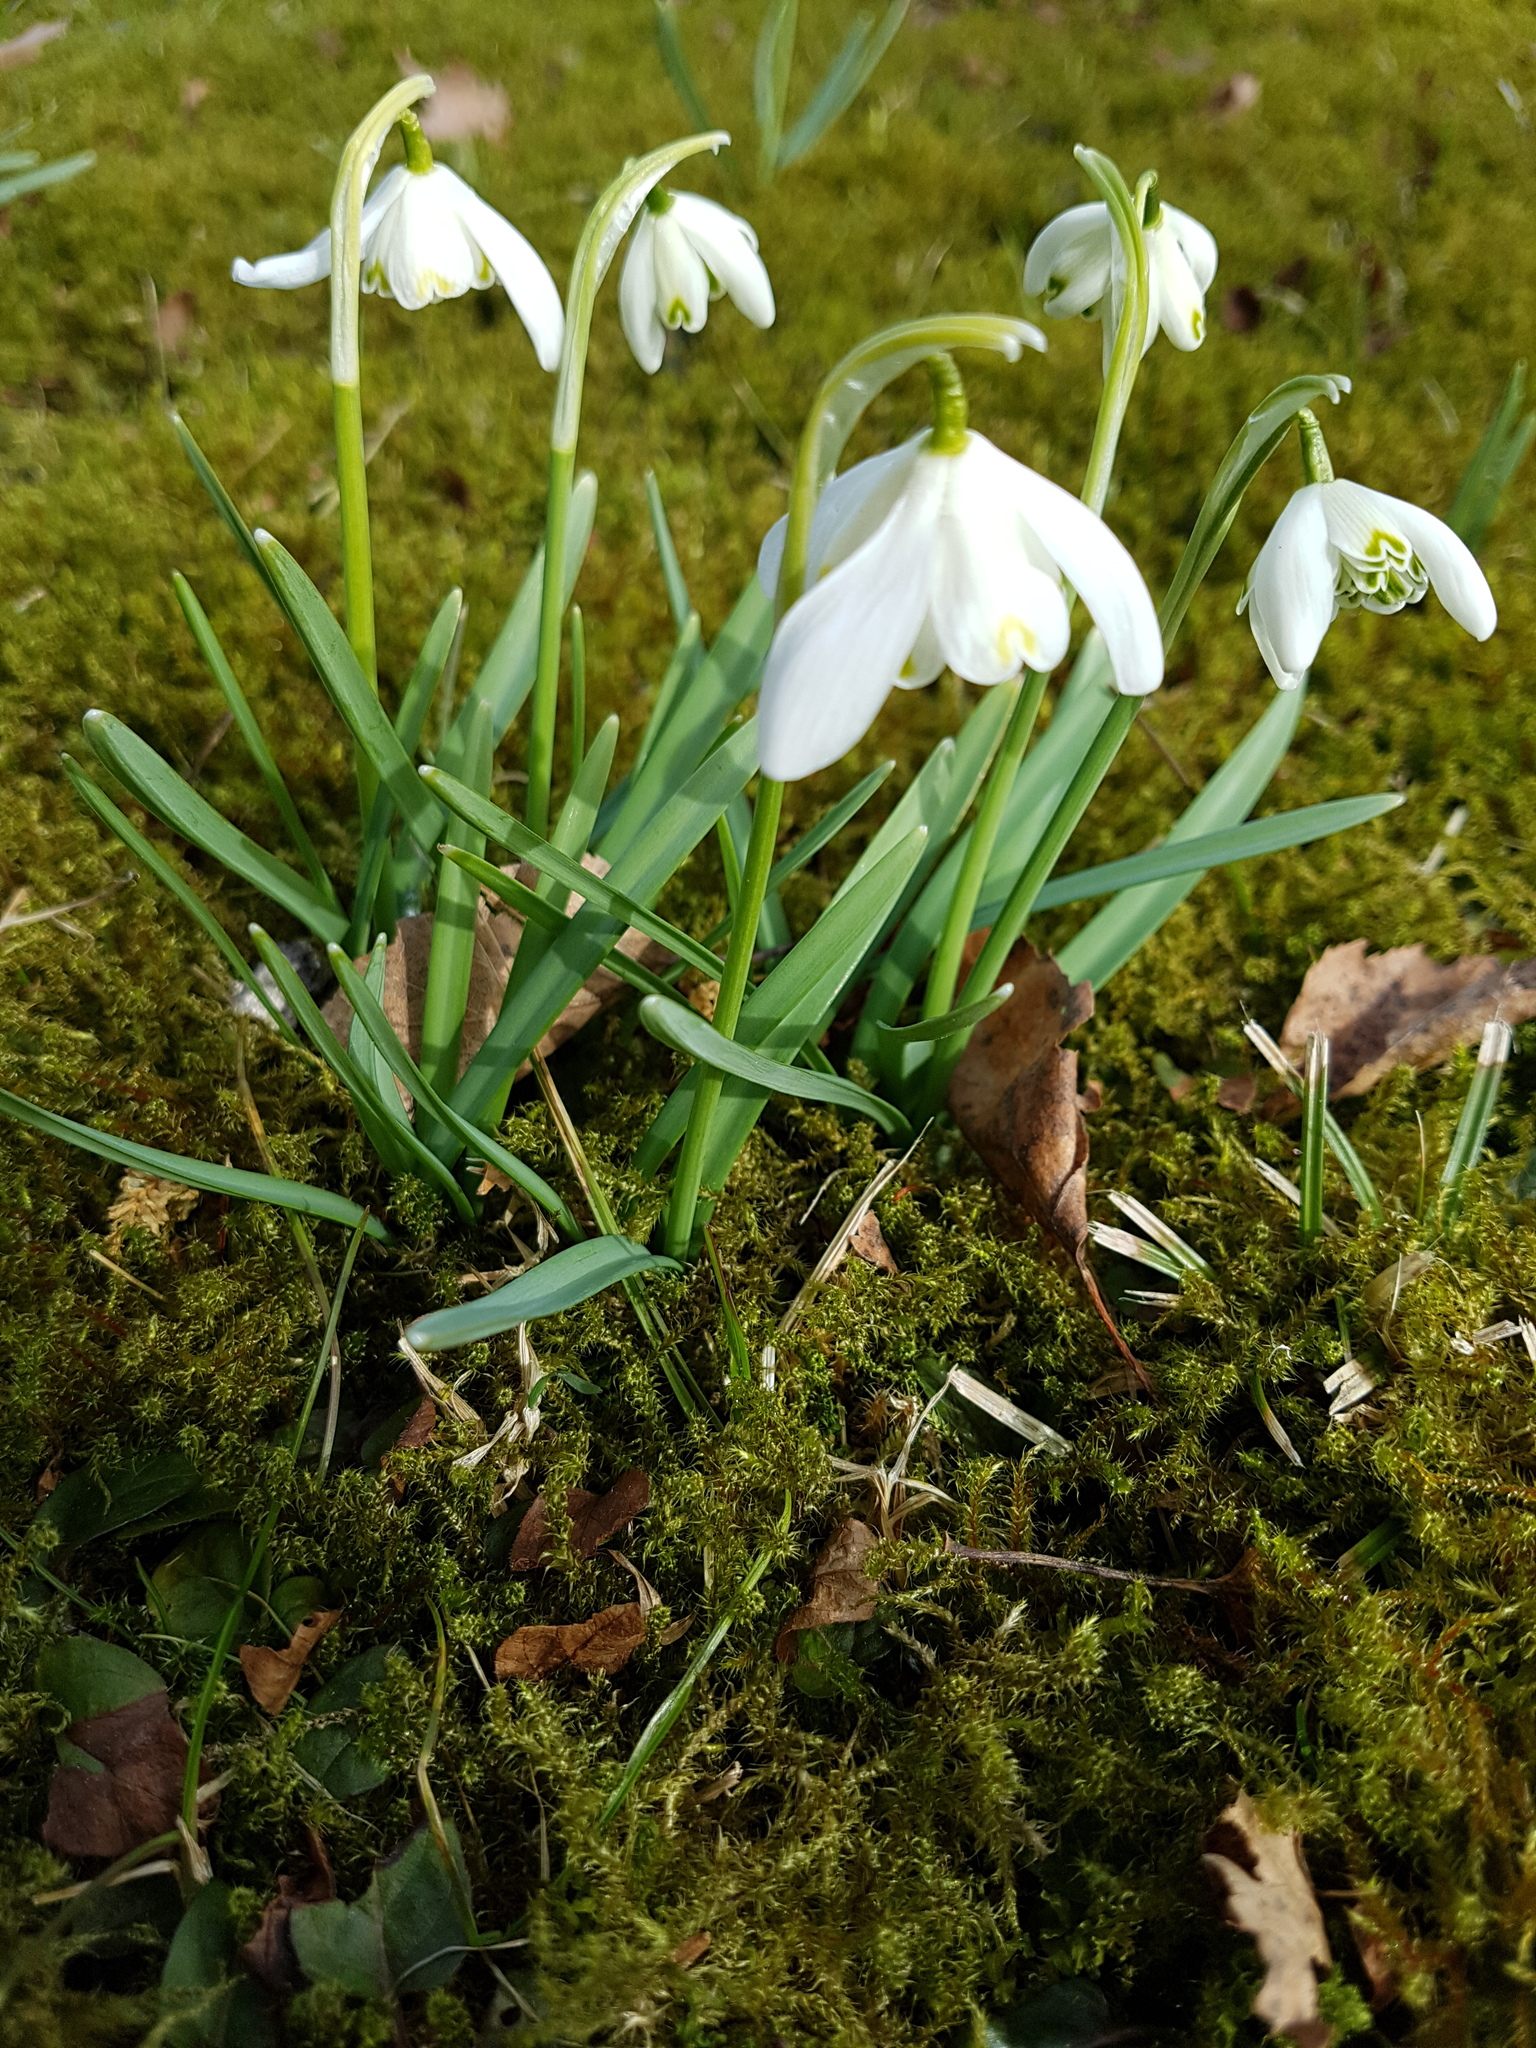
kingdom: Plantae
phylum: Tracheophyta
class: Liliopsida
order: Asparagales
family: Amaryllidaceae
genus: Galanthus
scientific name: Galanthus nivalis
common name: Snowdrop
